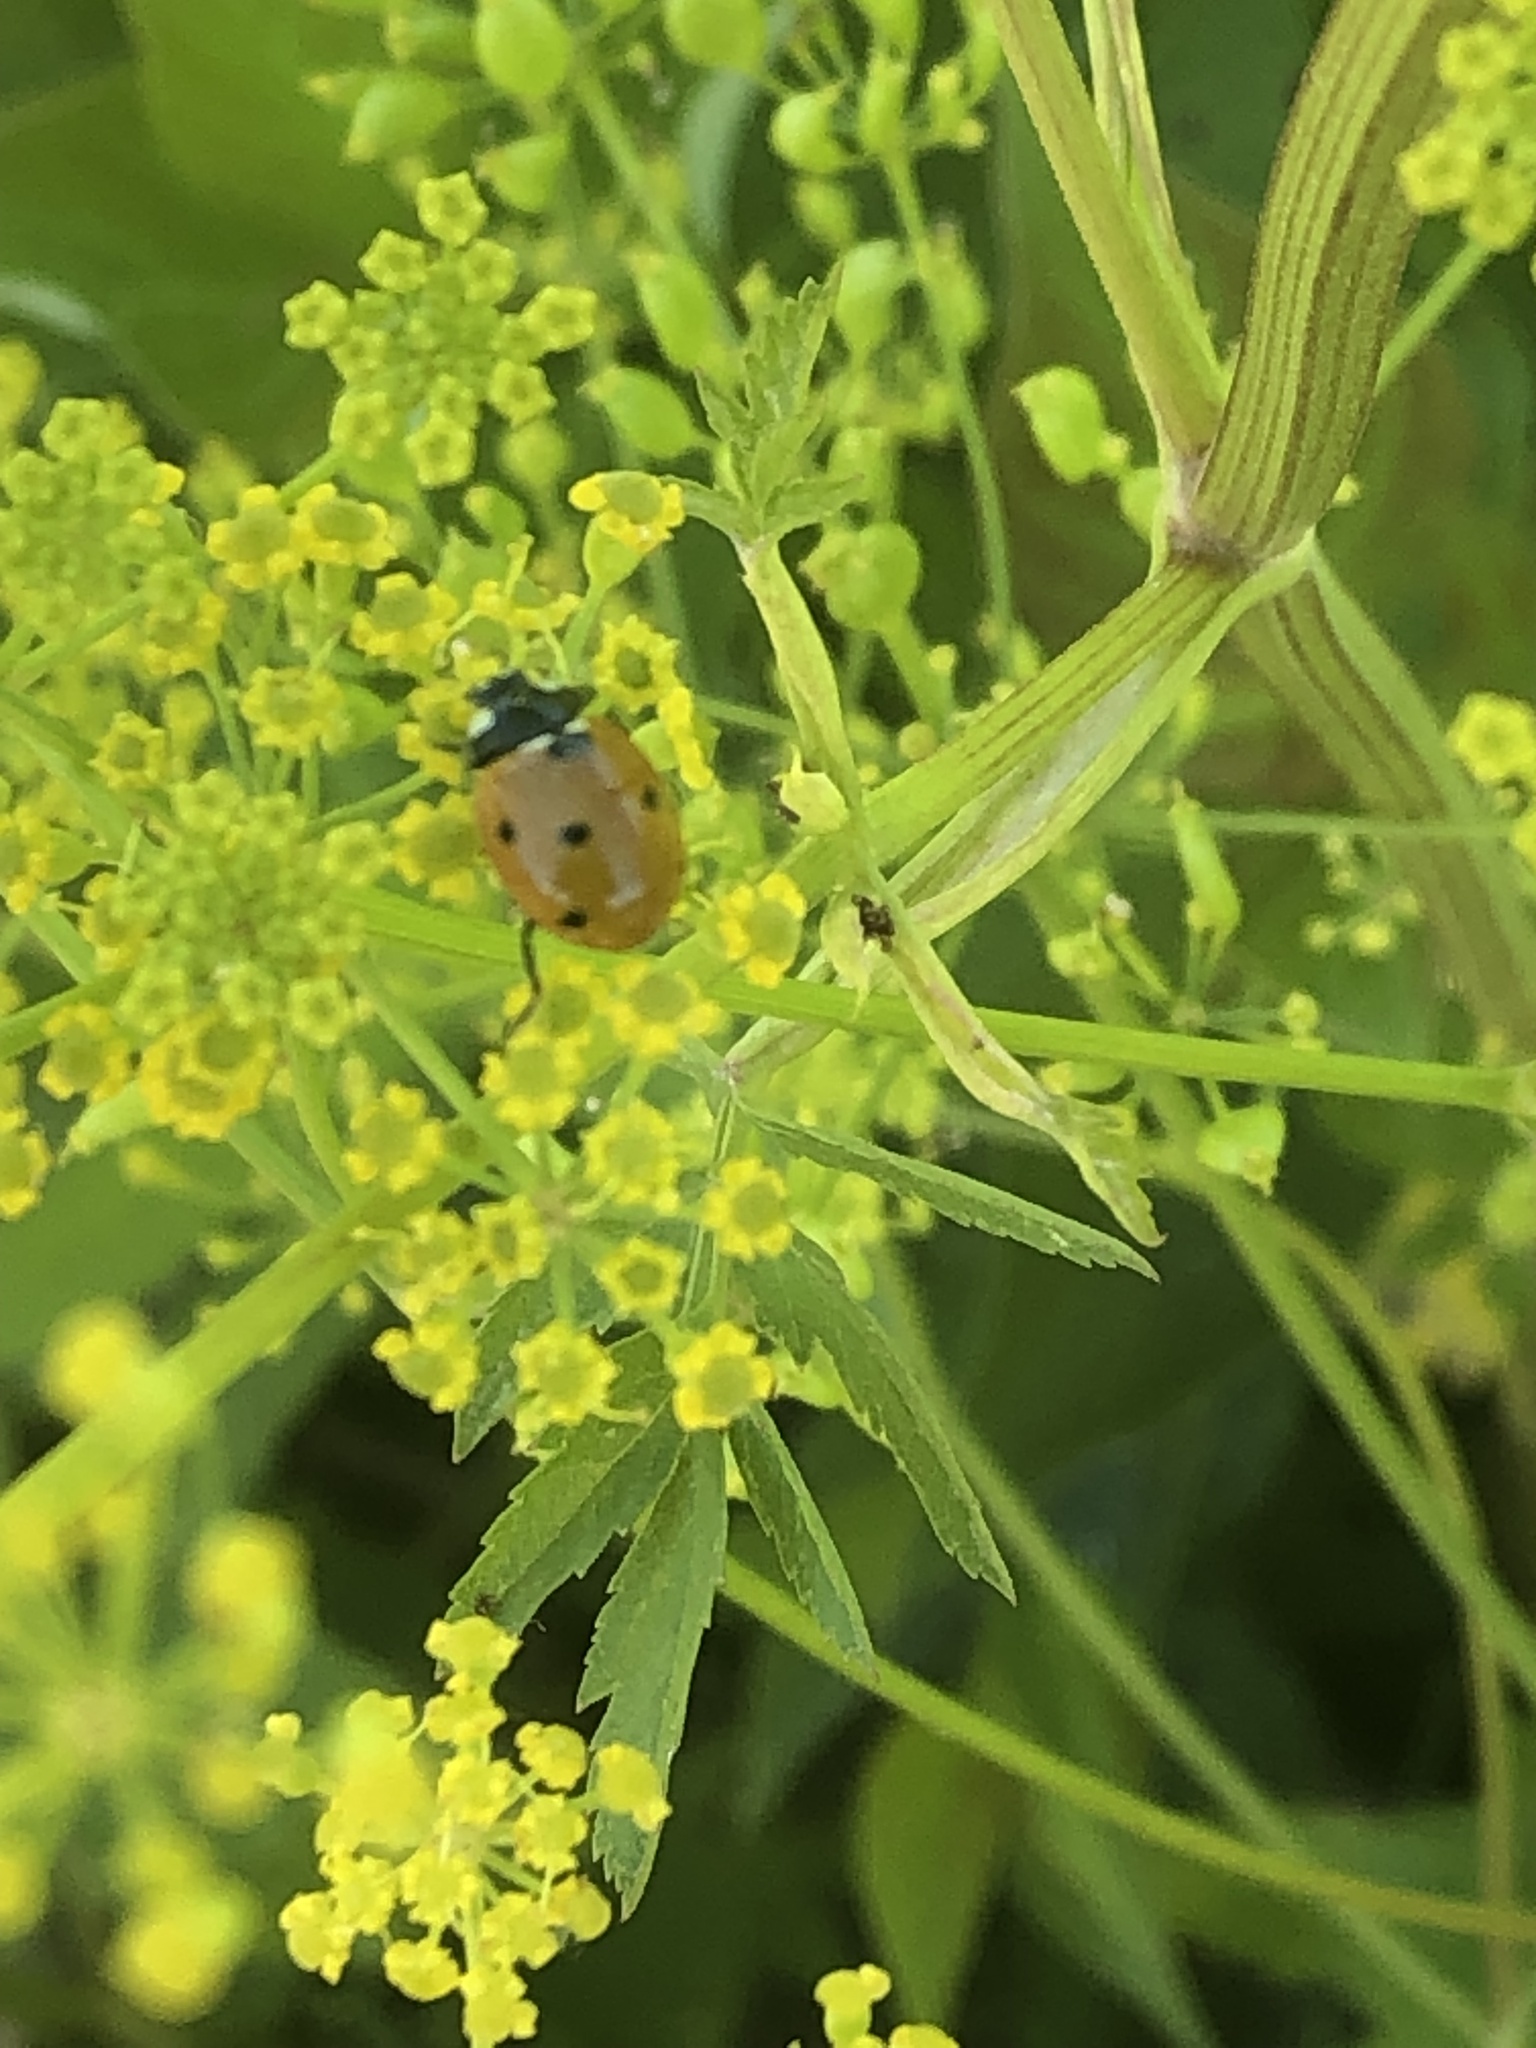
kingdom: Animalia
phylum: Arthropoda
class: Insecta
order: Coleoptera
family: Coccinellidae
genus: Coccinella
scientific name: Coccinella septempunctata
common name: Sevenspotted lady beetle
